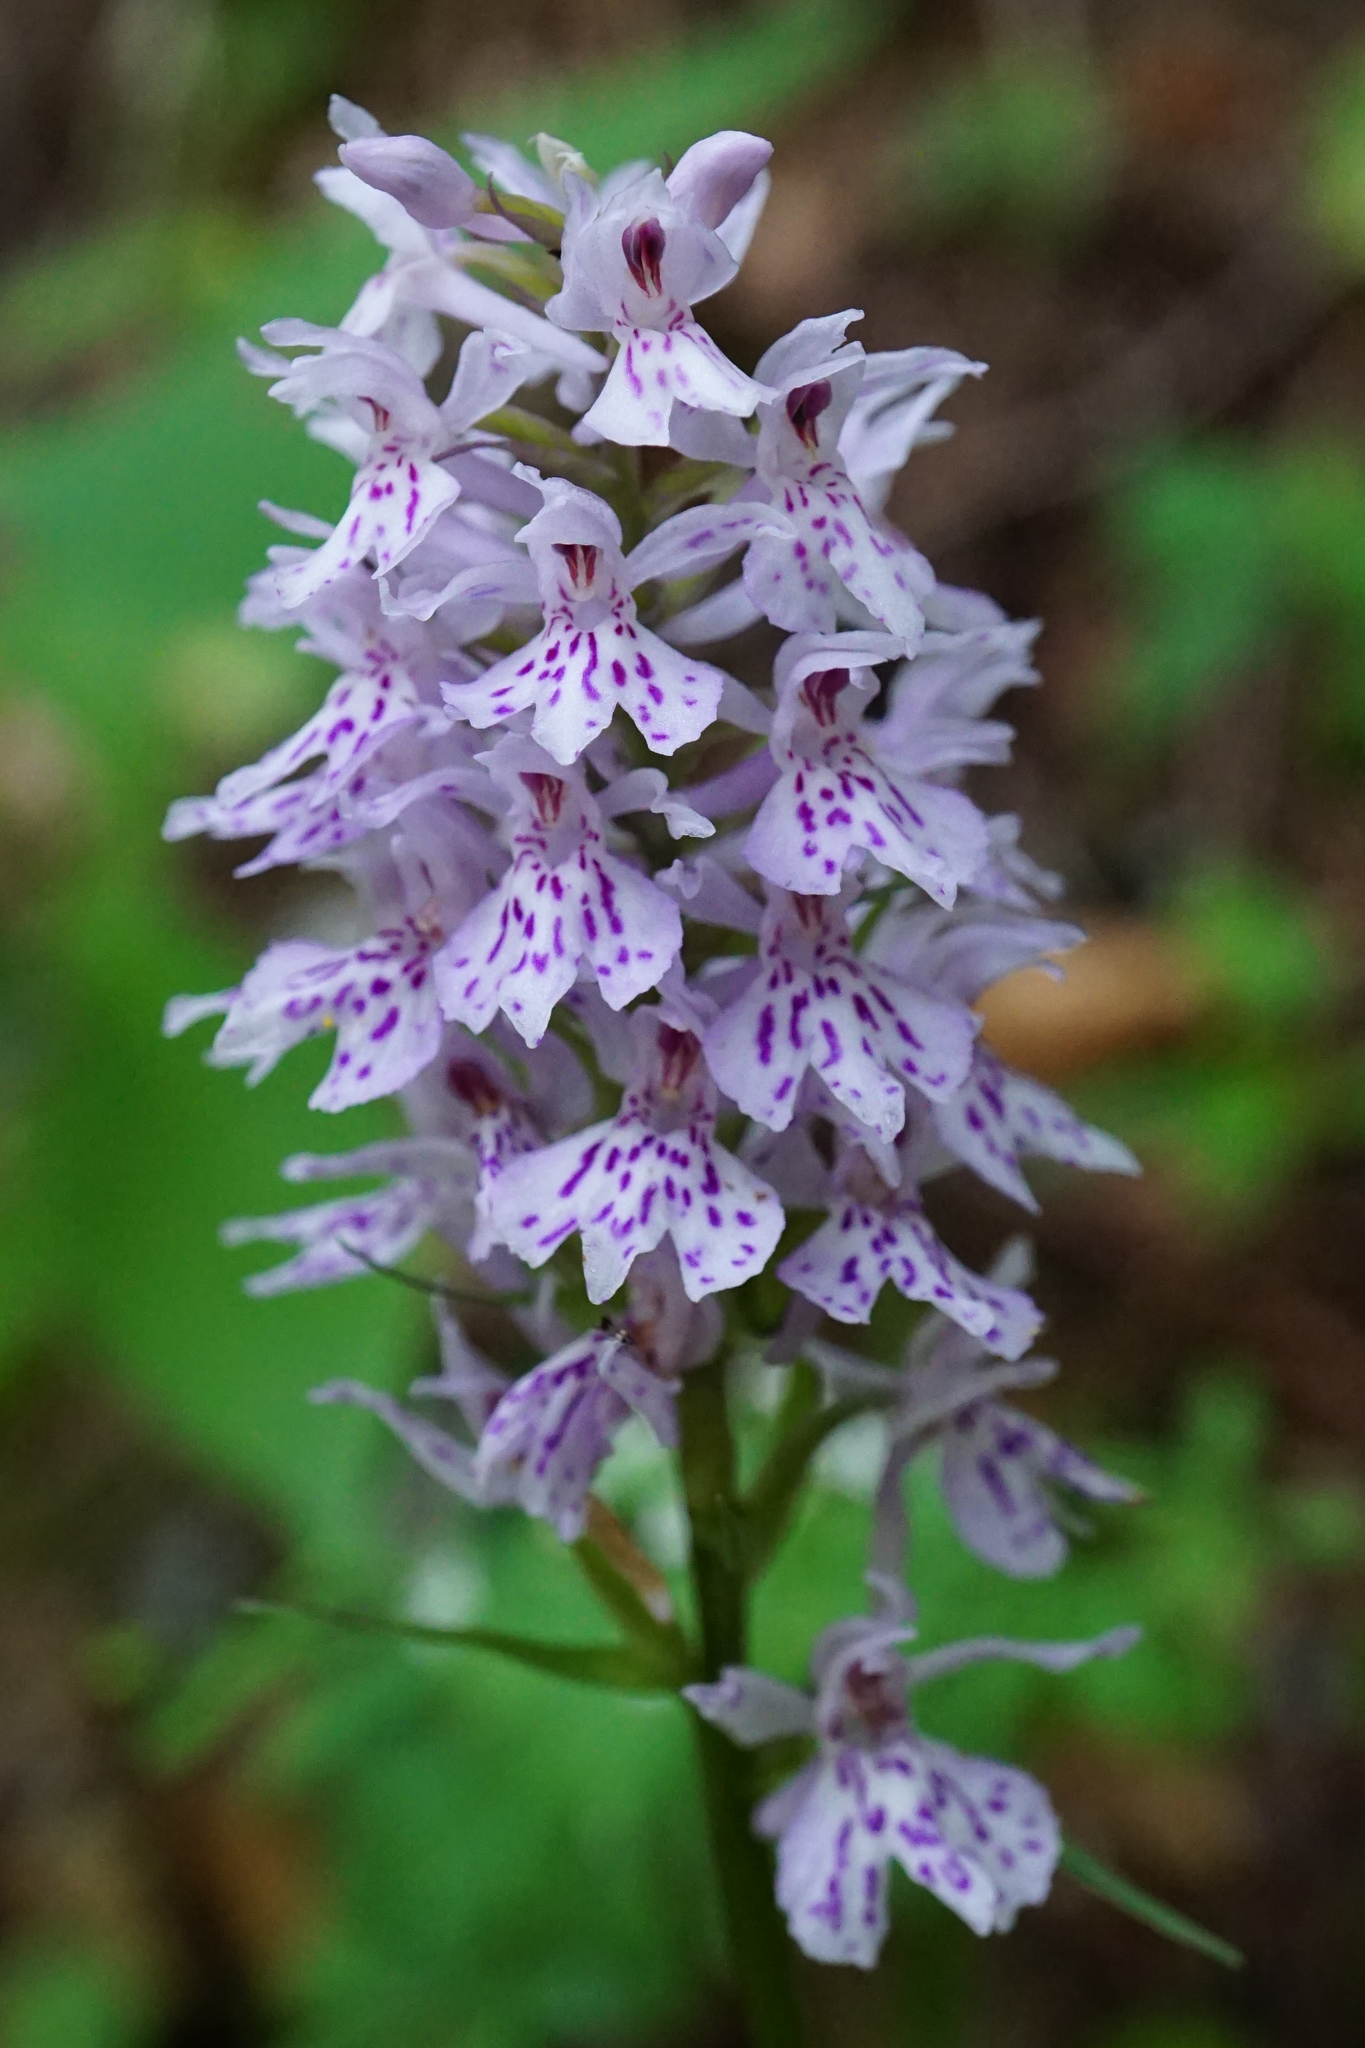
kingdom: Plantae
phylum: Tracheophyta
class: Liliopsida
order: Asparagales
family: Orchidaceae
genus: Dactylorhiza
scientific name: Dactylorhiza maculata
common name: Heath spotted-orchid
